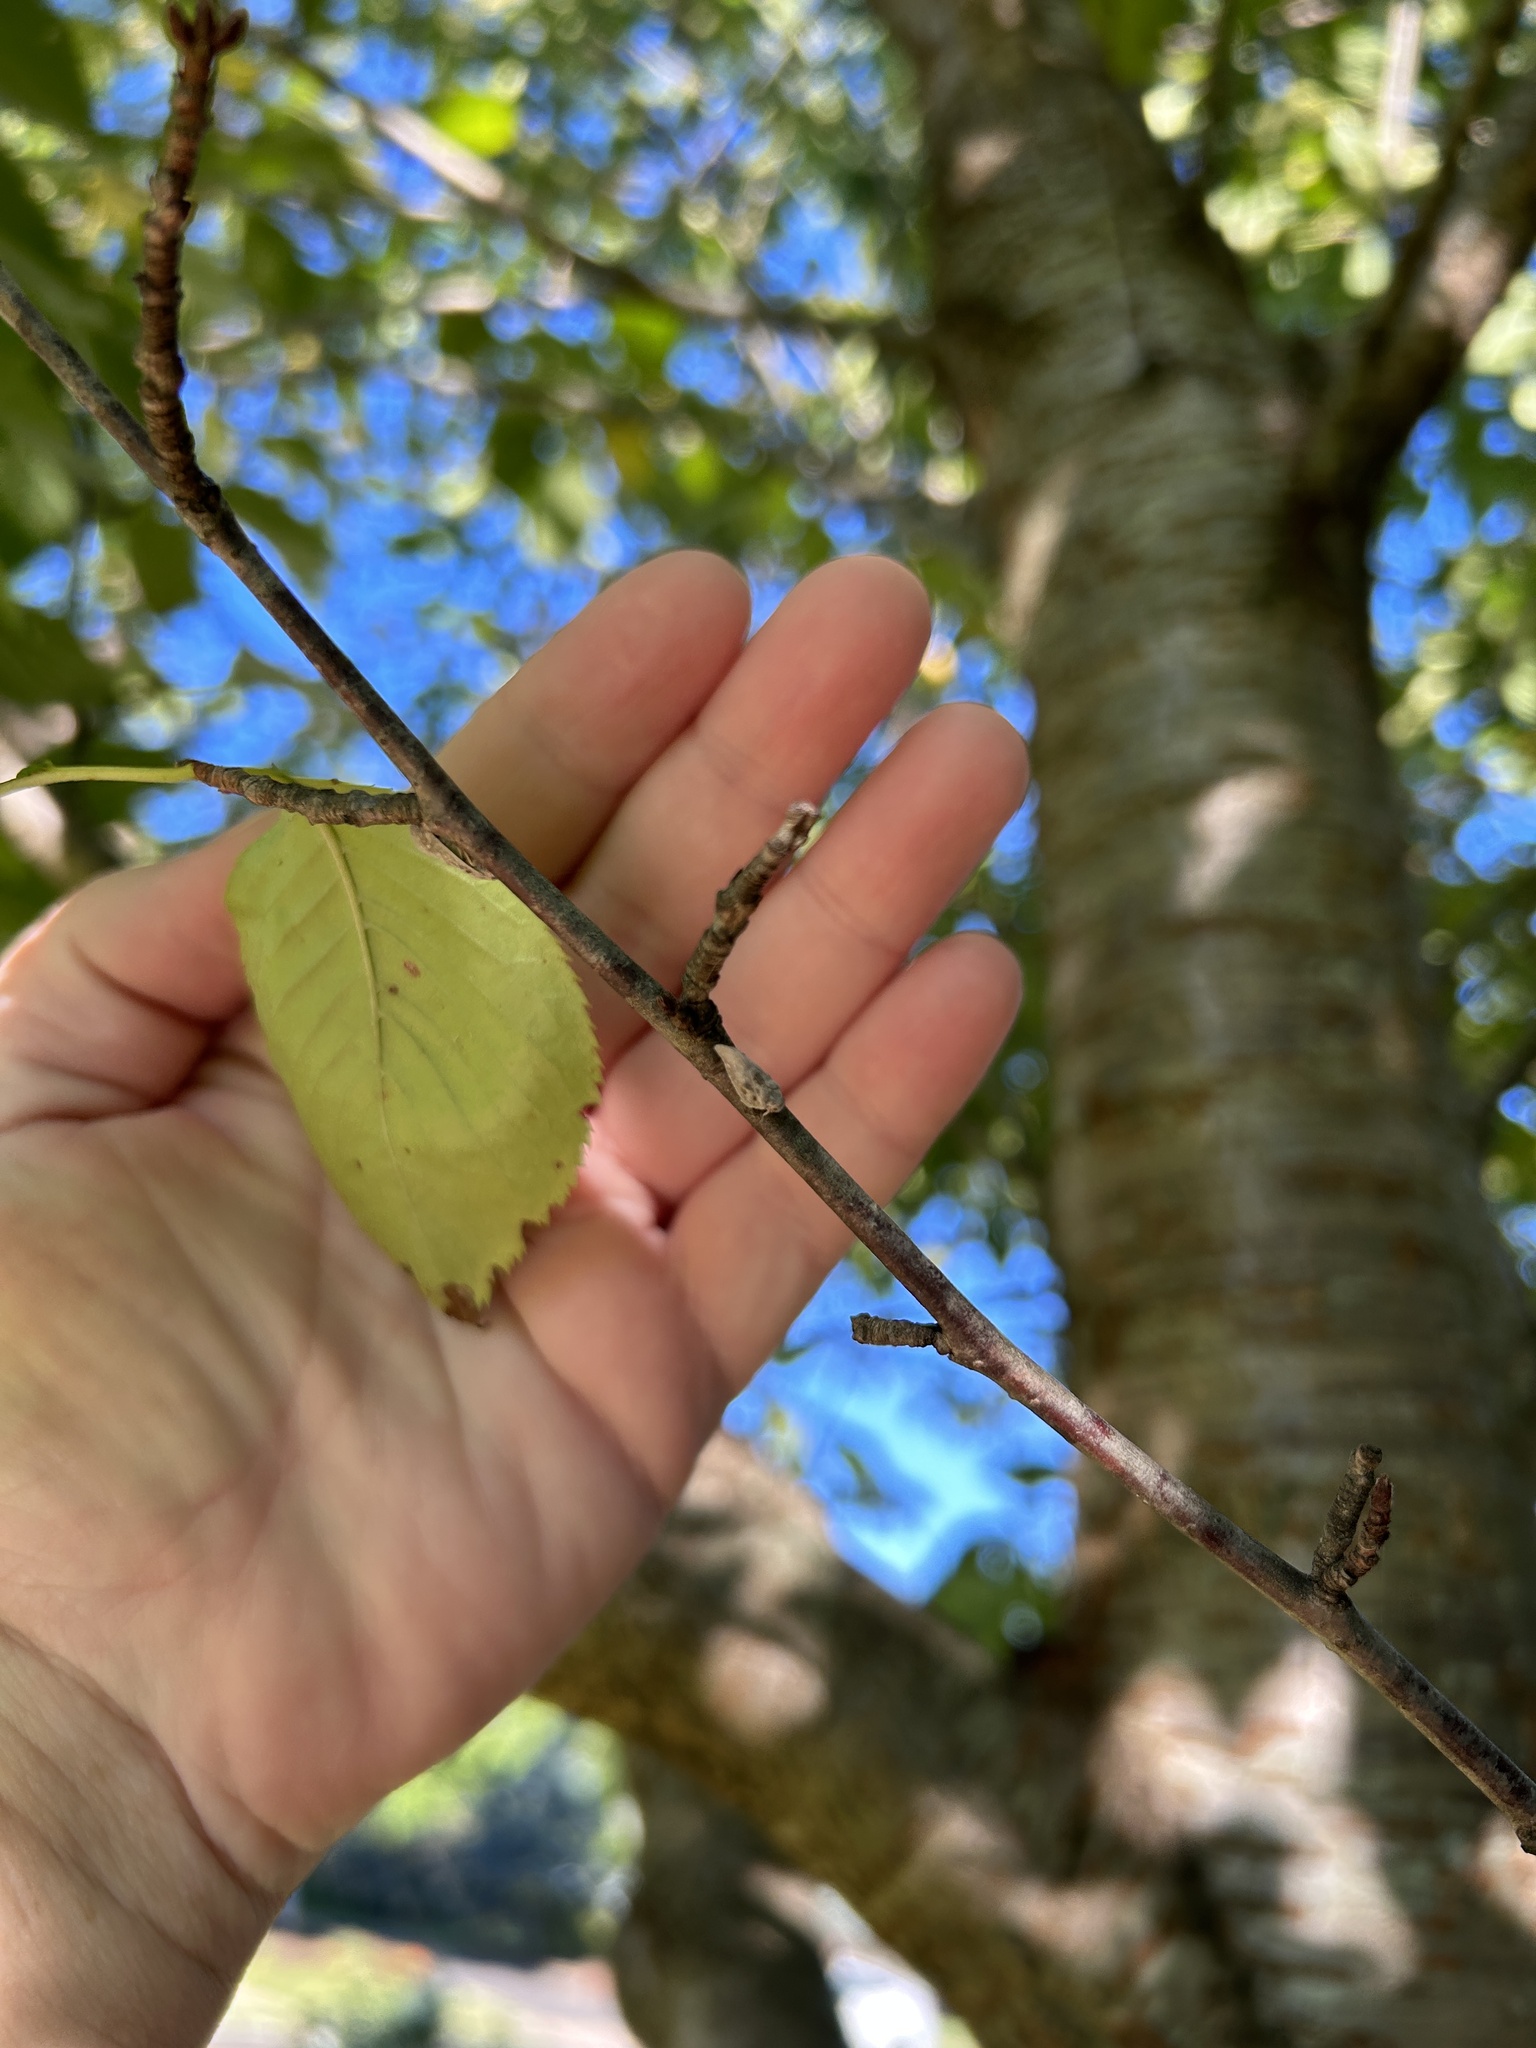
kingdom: Animalia
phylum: Arthropoda
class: Insecta
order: Hemiptera
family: Flatidae
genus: Metcalfa
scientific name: Metcalfa pruinosa
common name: Citrus flatid planthopper
